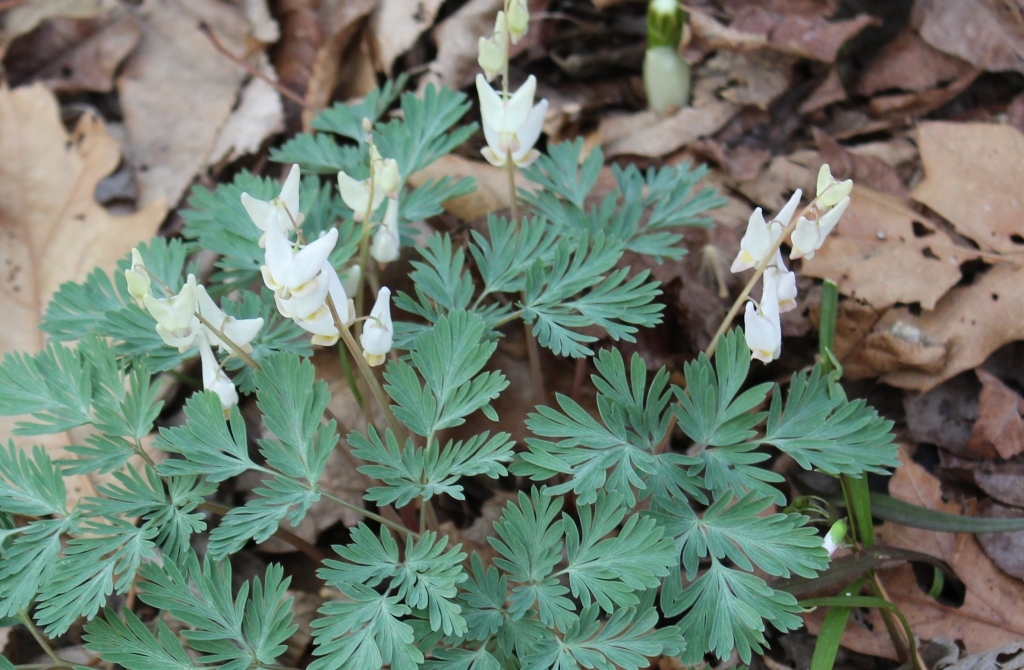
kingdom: Plantae
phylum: Tracheophyta
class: Magnoliopsida
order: Ranunculales
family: Papaveraceae
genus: Dicentra
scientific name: Dicentra cucullaria
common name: Dutchman's breeches
